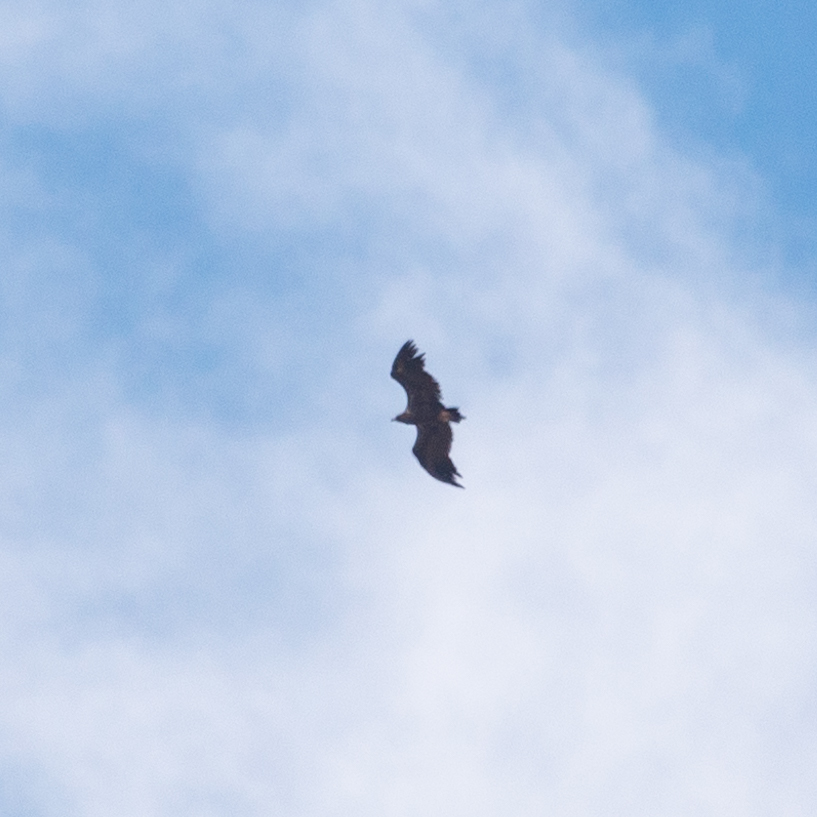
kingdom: Animalia
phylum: Chordata
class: Aves
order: Accipitriformes
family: Accipitridae
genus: Aegypius
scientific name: Aegypius monachus
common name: Cinereous vulture
